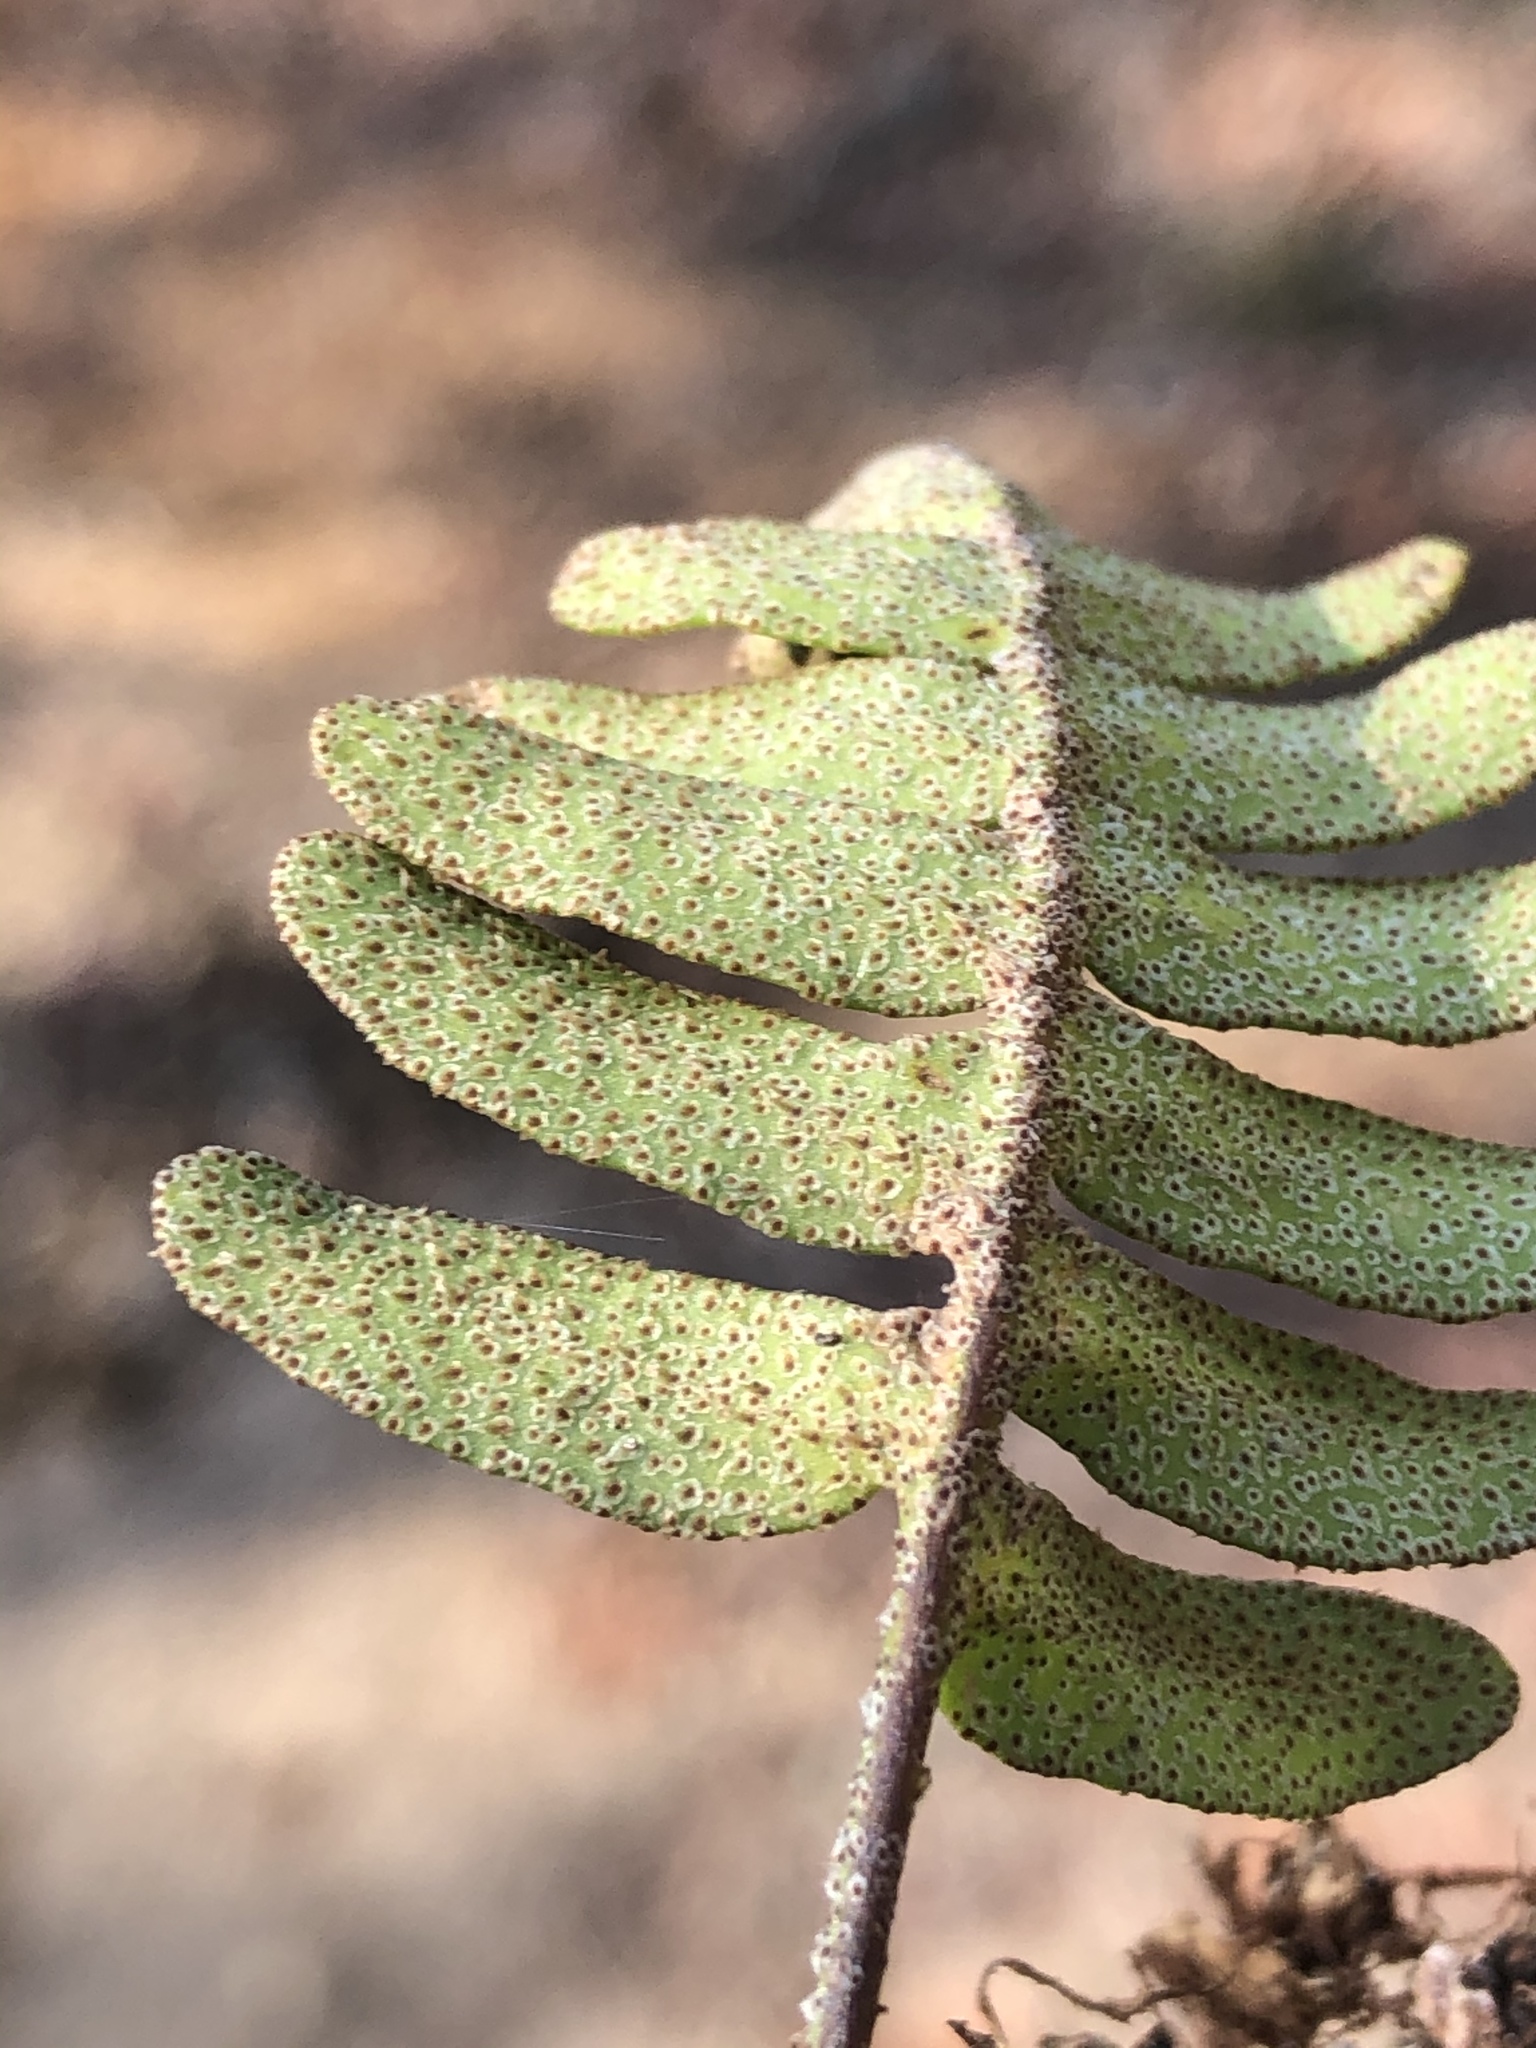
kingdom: Plantae
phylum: Tracheophyta
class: Polypodiopsida
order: Polypodiales
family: Polypodiaceae
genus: Pleopeltis
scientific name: Pleopeltis michauxiana
